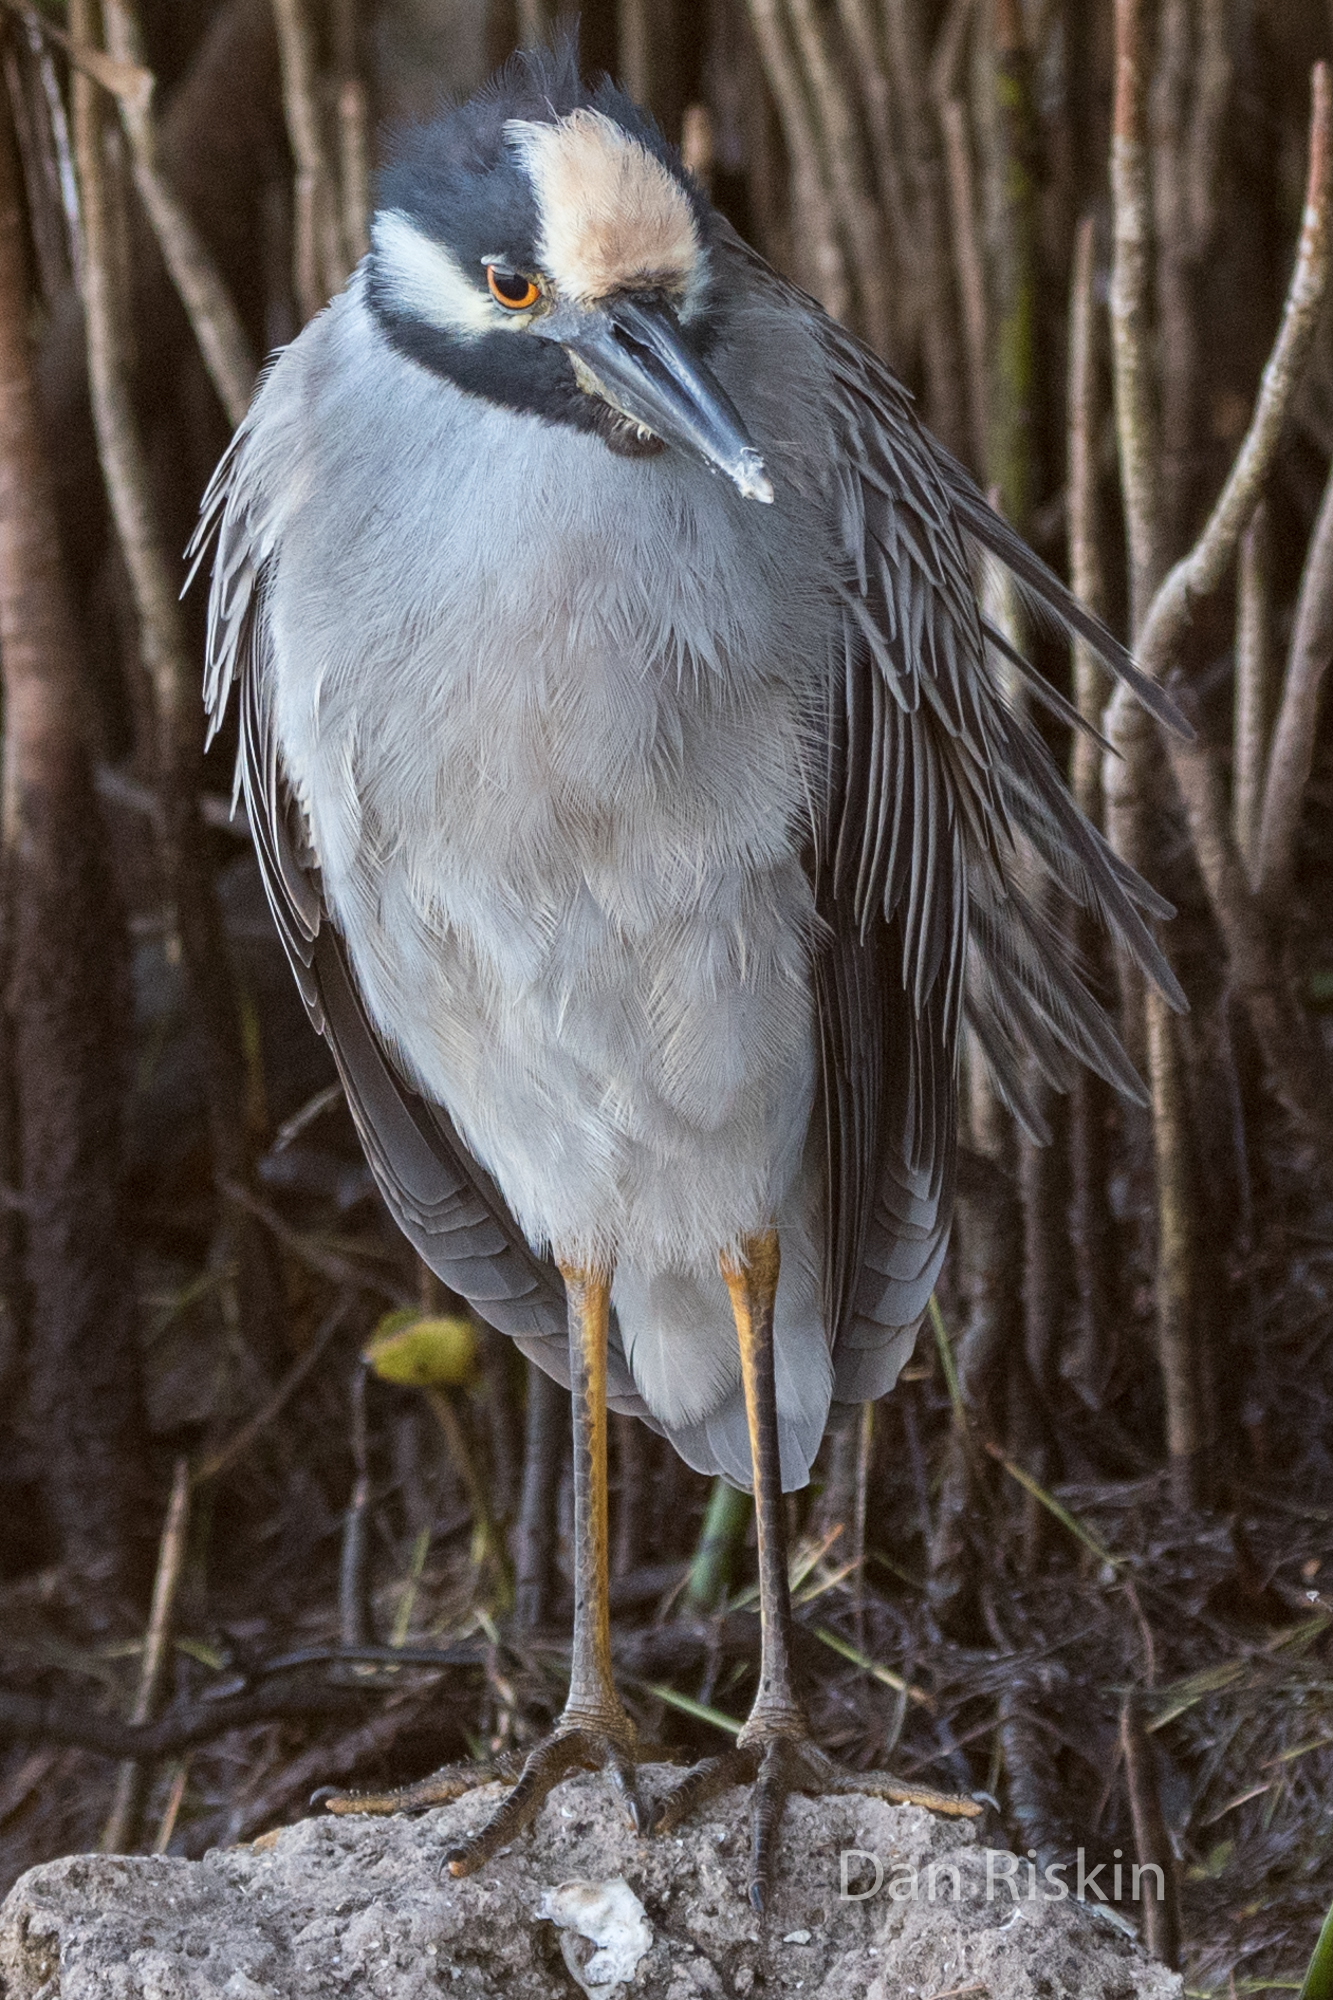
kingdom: Animalia
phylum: Chordata
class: Aves
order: Pelecaniformes
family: Ardeidae
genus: Nyctanassa
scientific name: Nyctanassa violacea
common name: Yellow-crowned night heron
